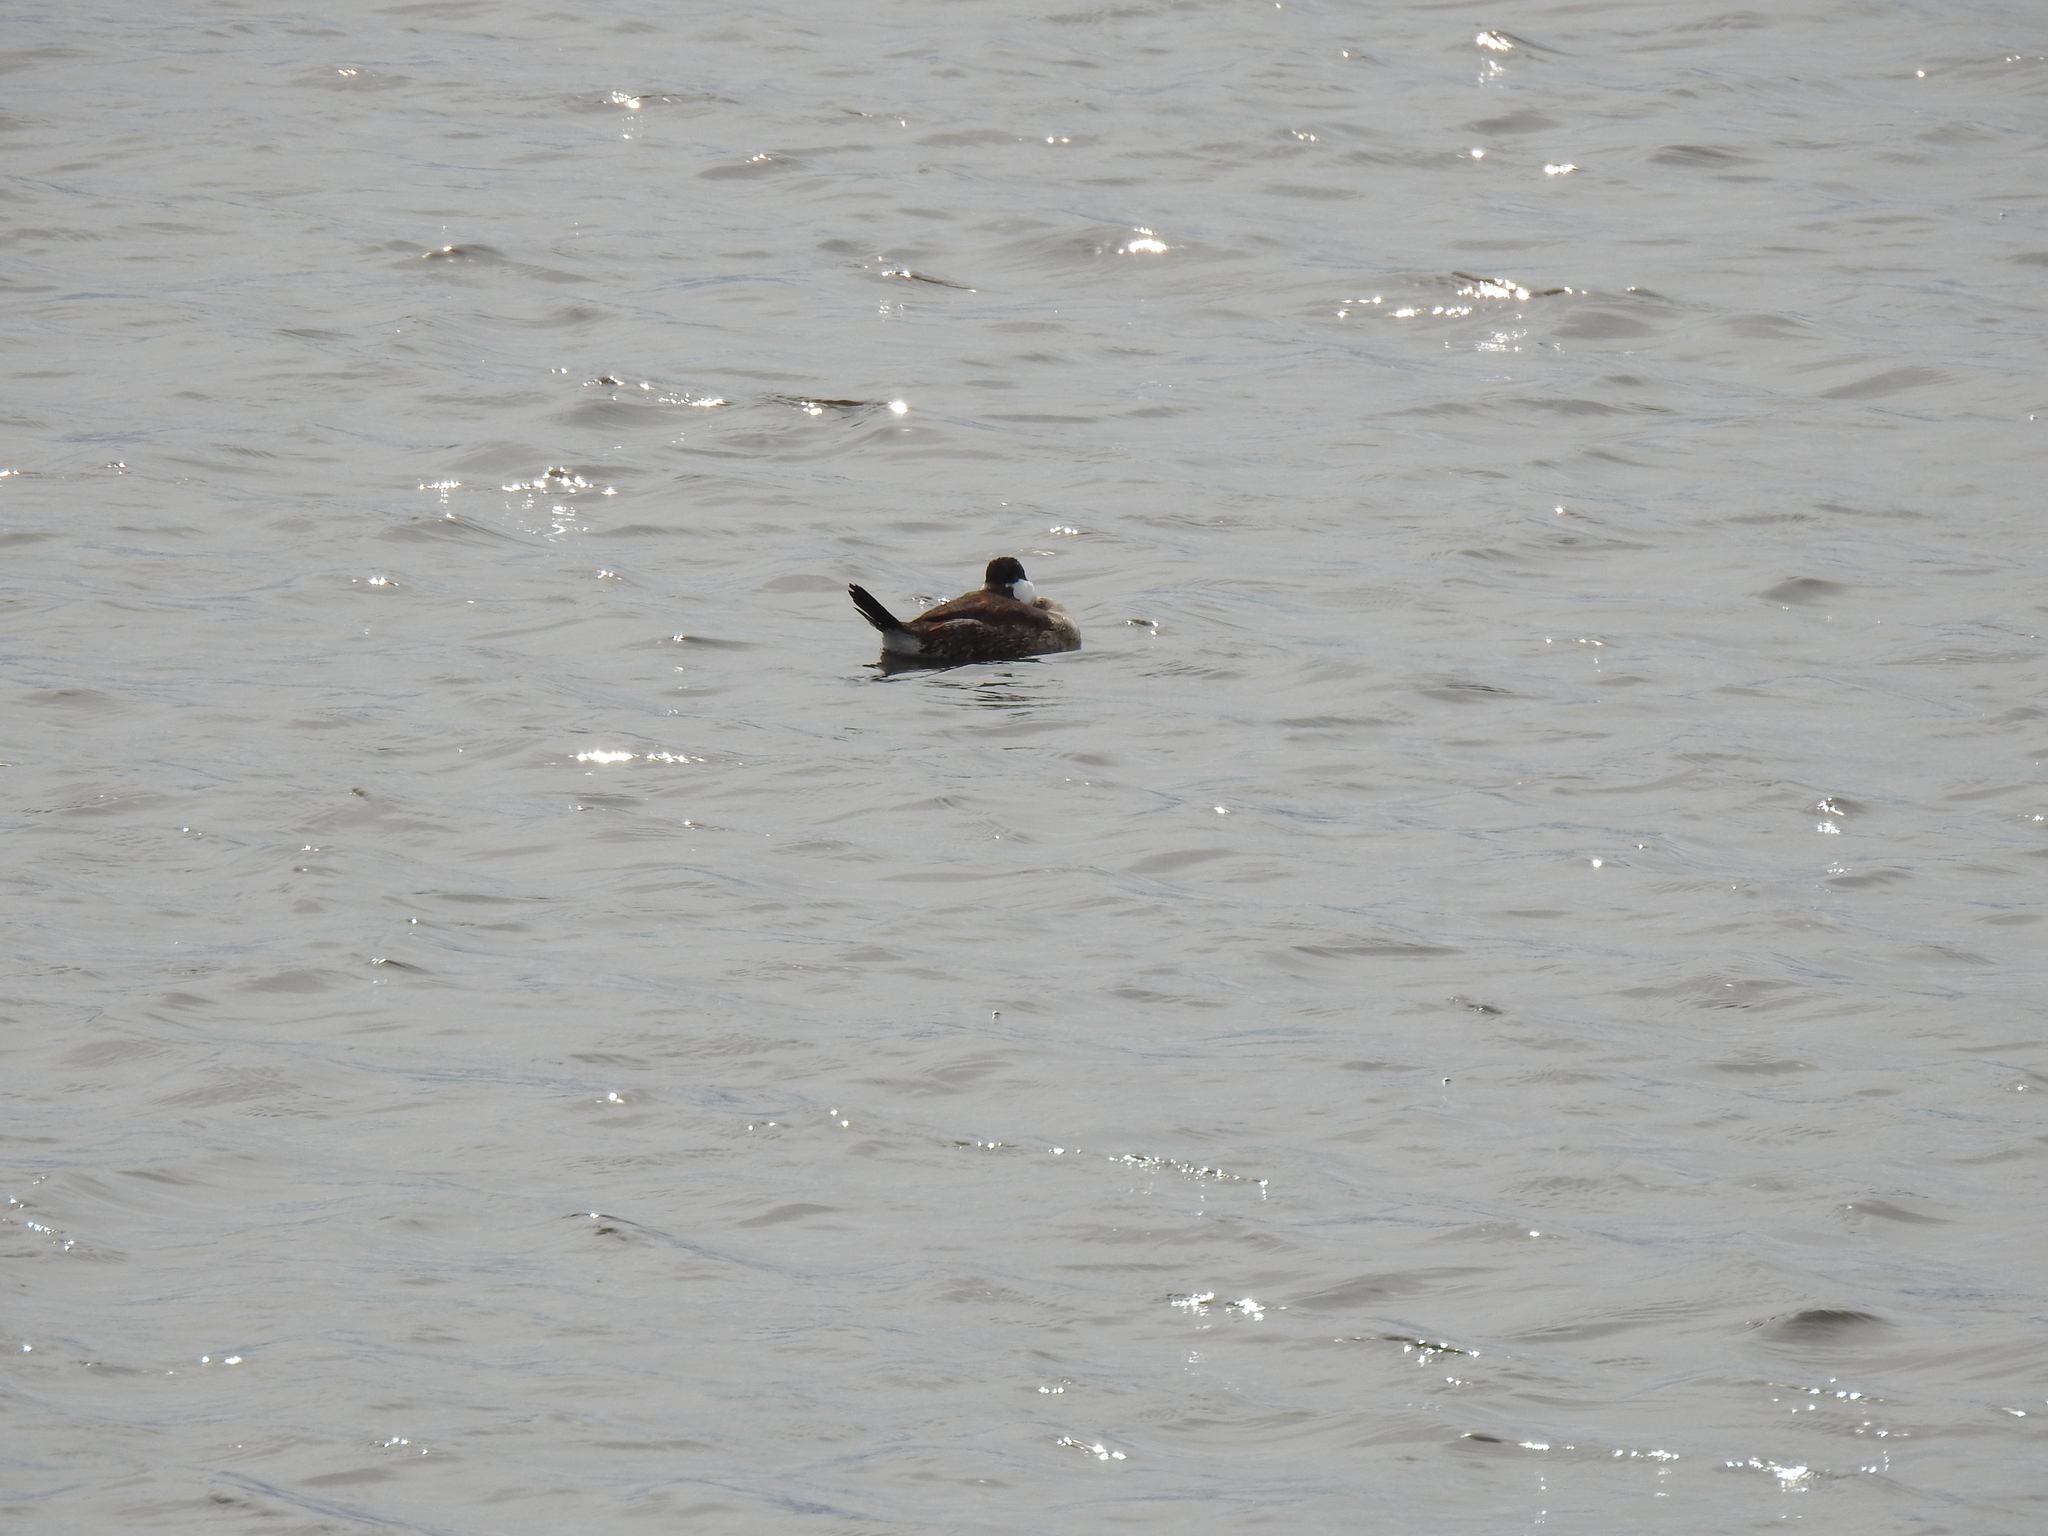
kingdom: Animalia
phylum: Chordata
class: Aves
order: Anseriformes
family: Anatidae
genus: Oxyura
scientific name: Oxyura jamaicensis
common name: Ruddy duck
